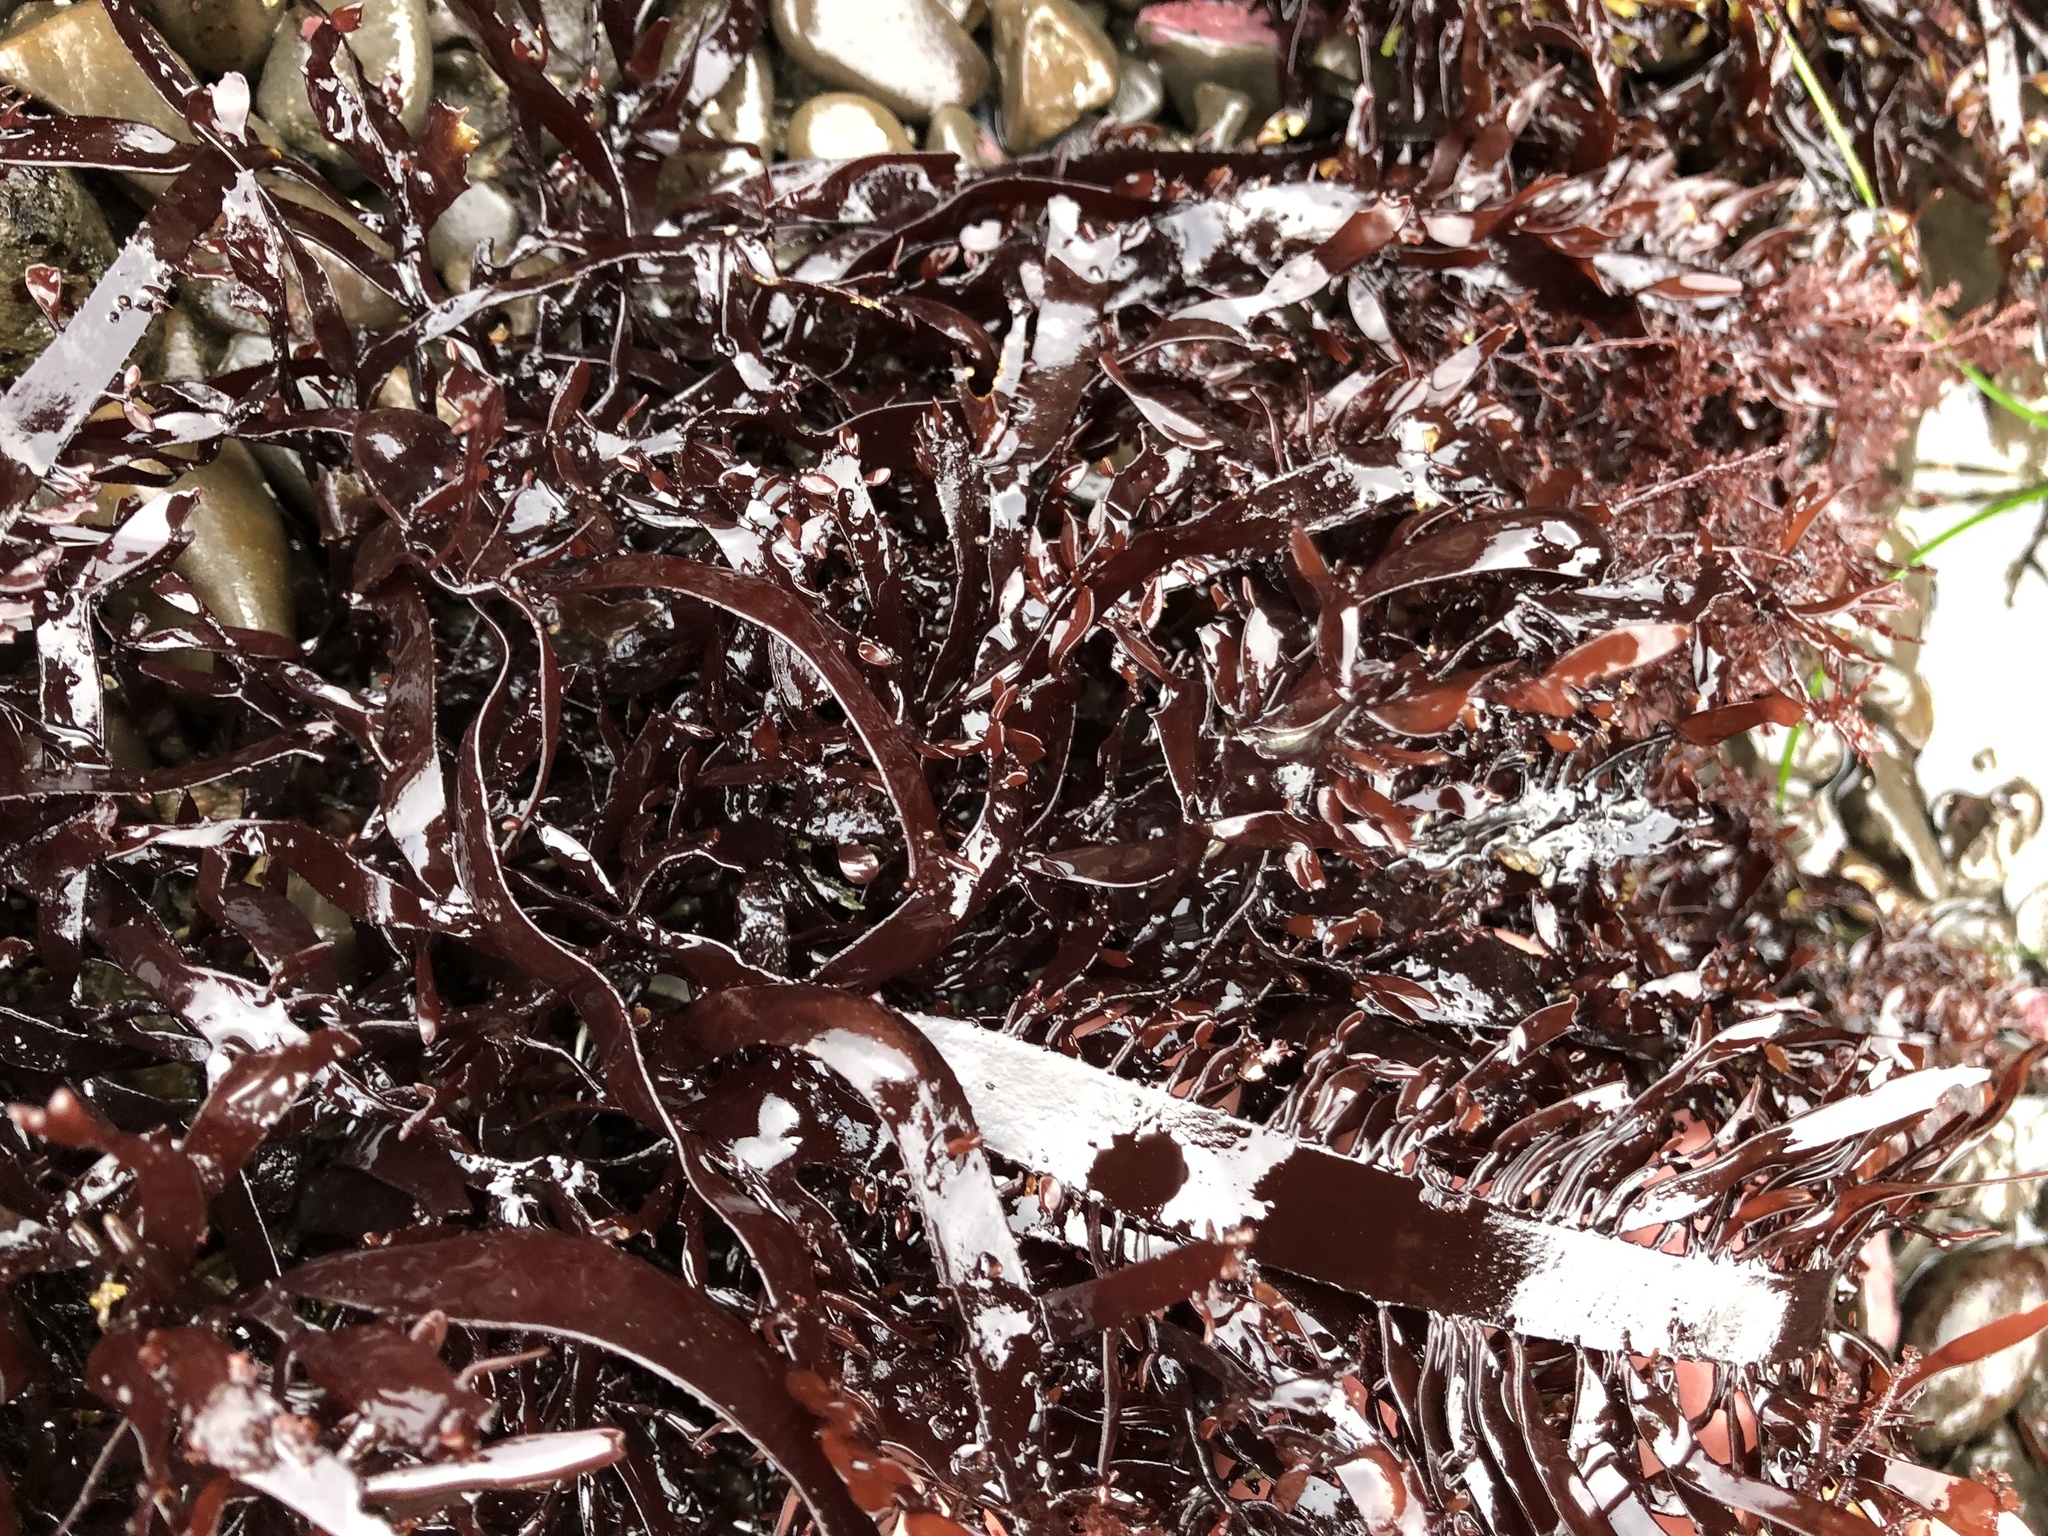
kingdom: Plantae
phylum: Rhodophyta
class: Florideophyceae
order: Halymeniales
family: Halymeniaceae
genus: Grateloupia
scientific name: Grateloupia Prionitis lanceolata
